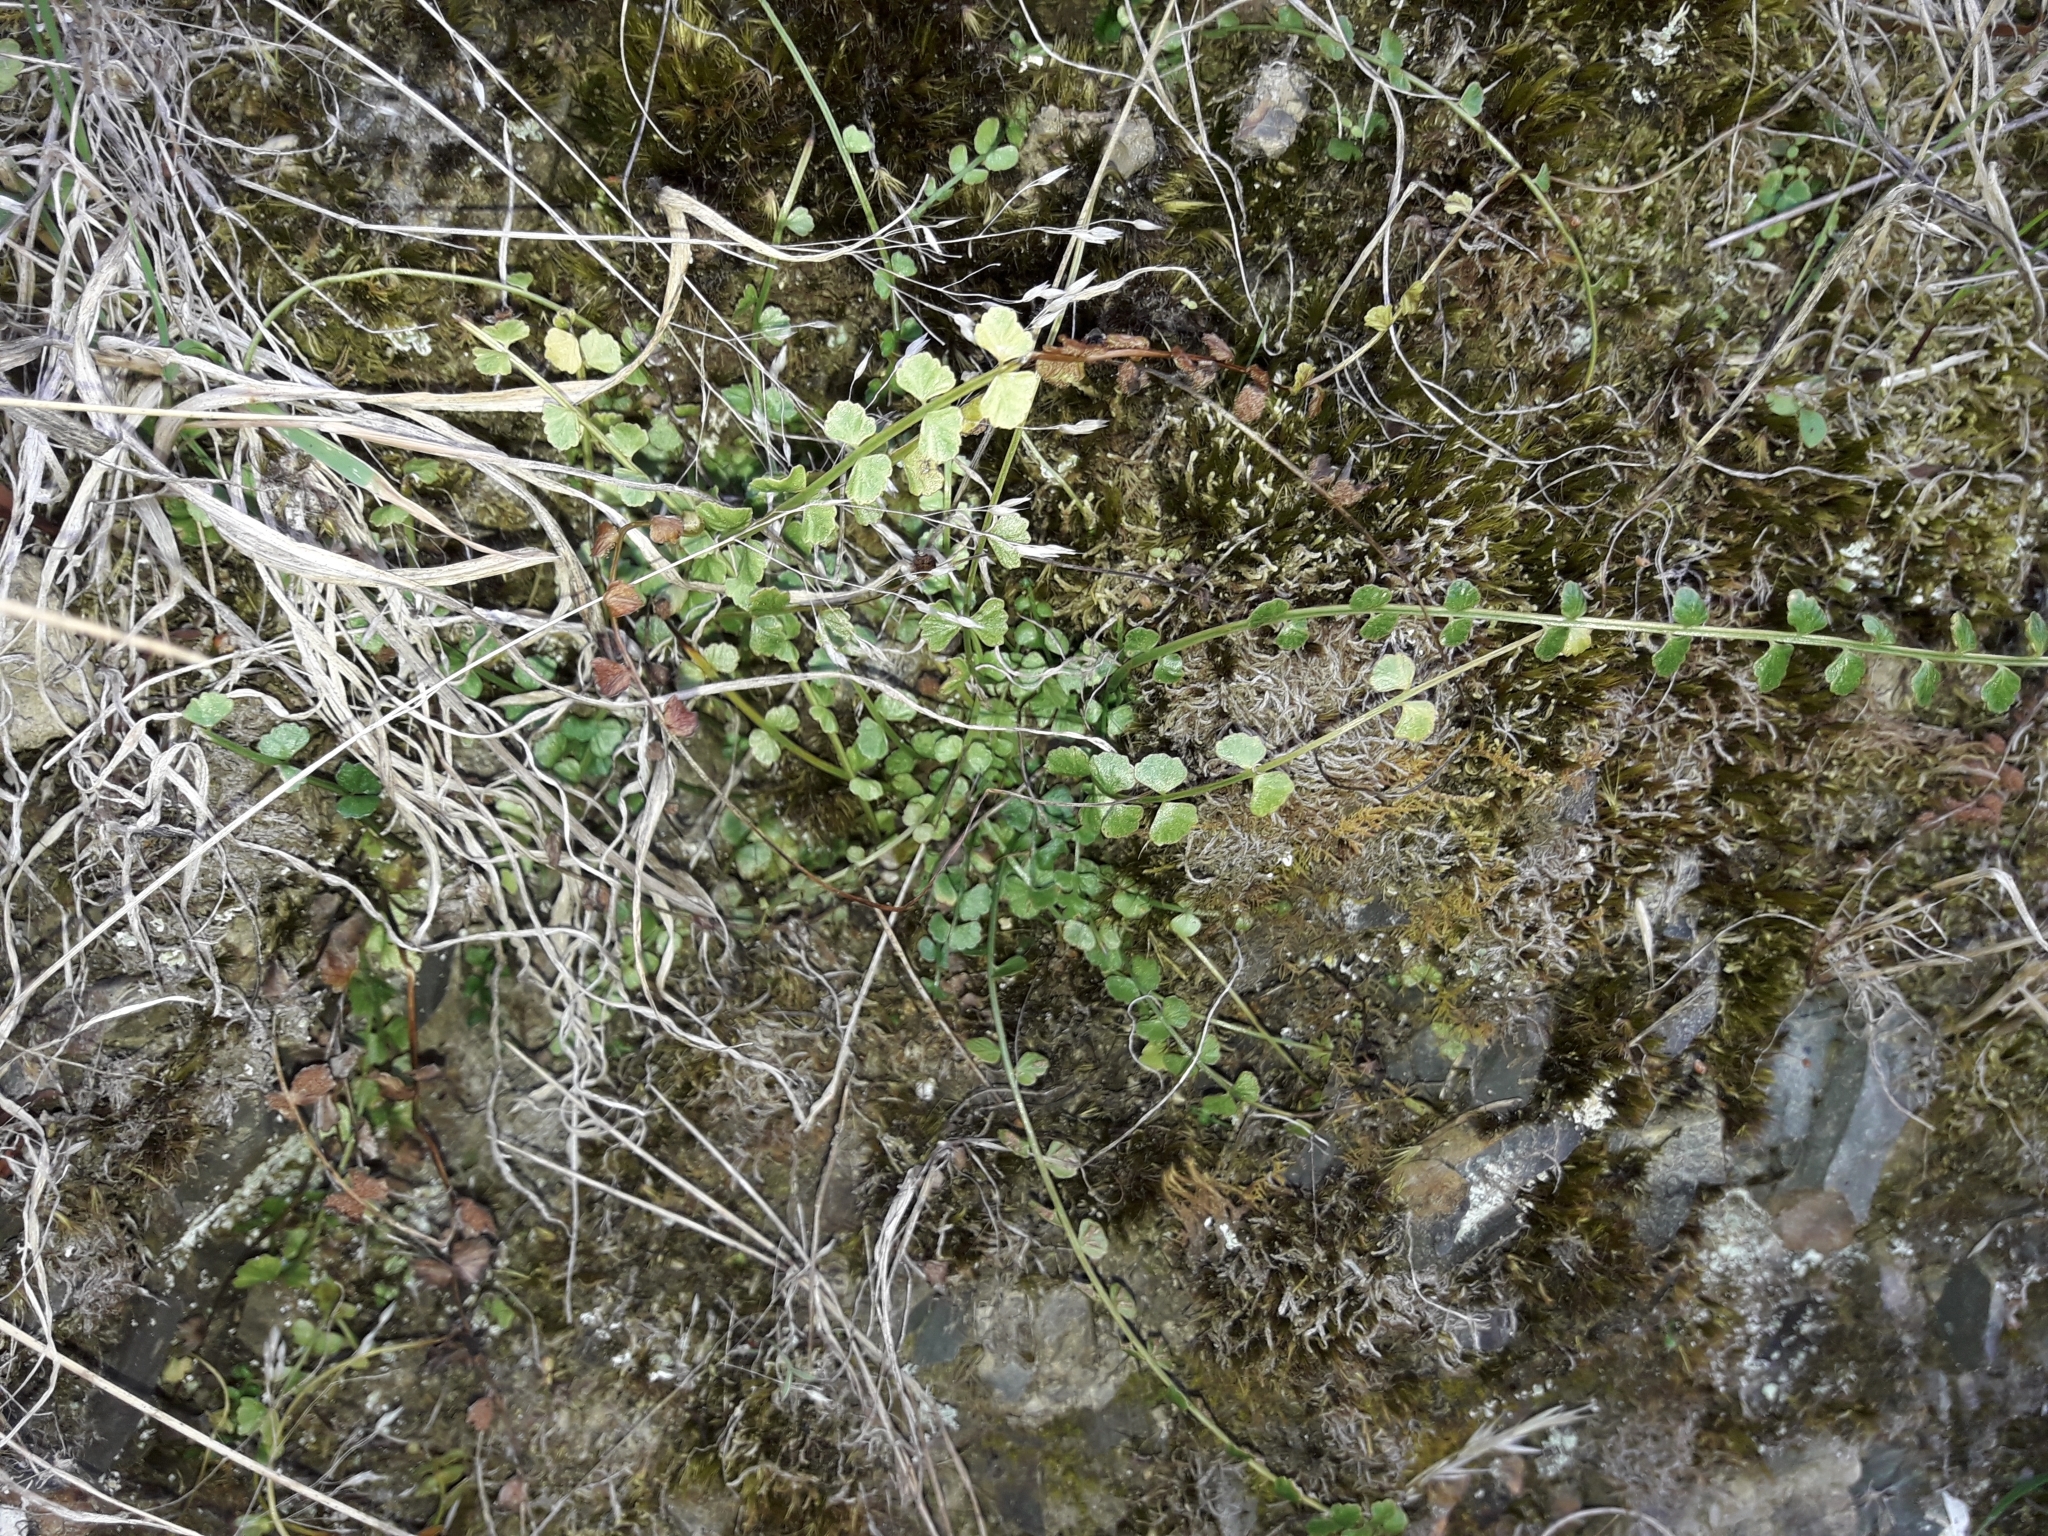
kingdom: Plantae
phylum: Tracheophyta
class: Polypodiopsida
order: Polypodiales
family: Aspleniaceae
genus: Asplenium
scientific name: Asplenium flabellifolium
